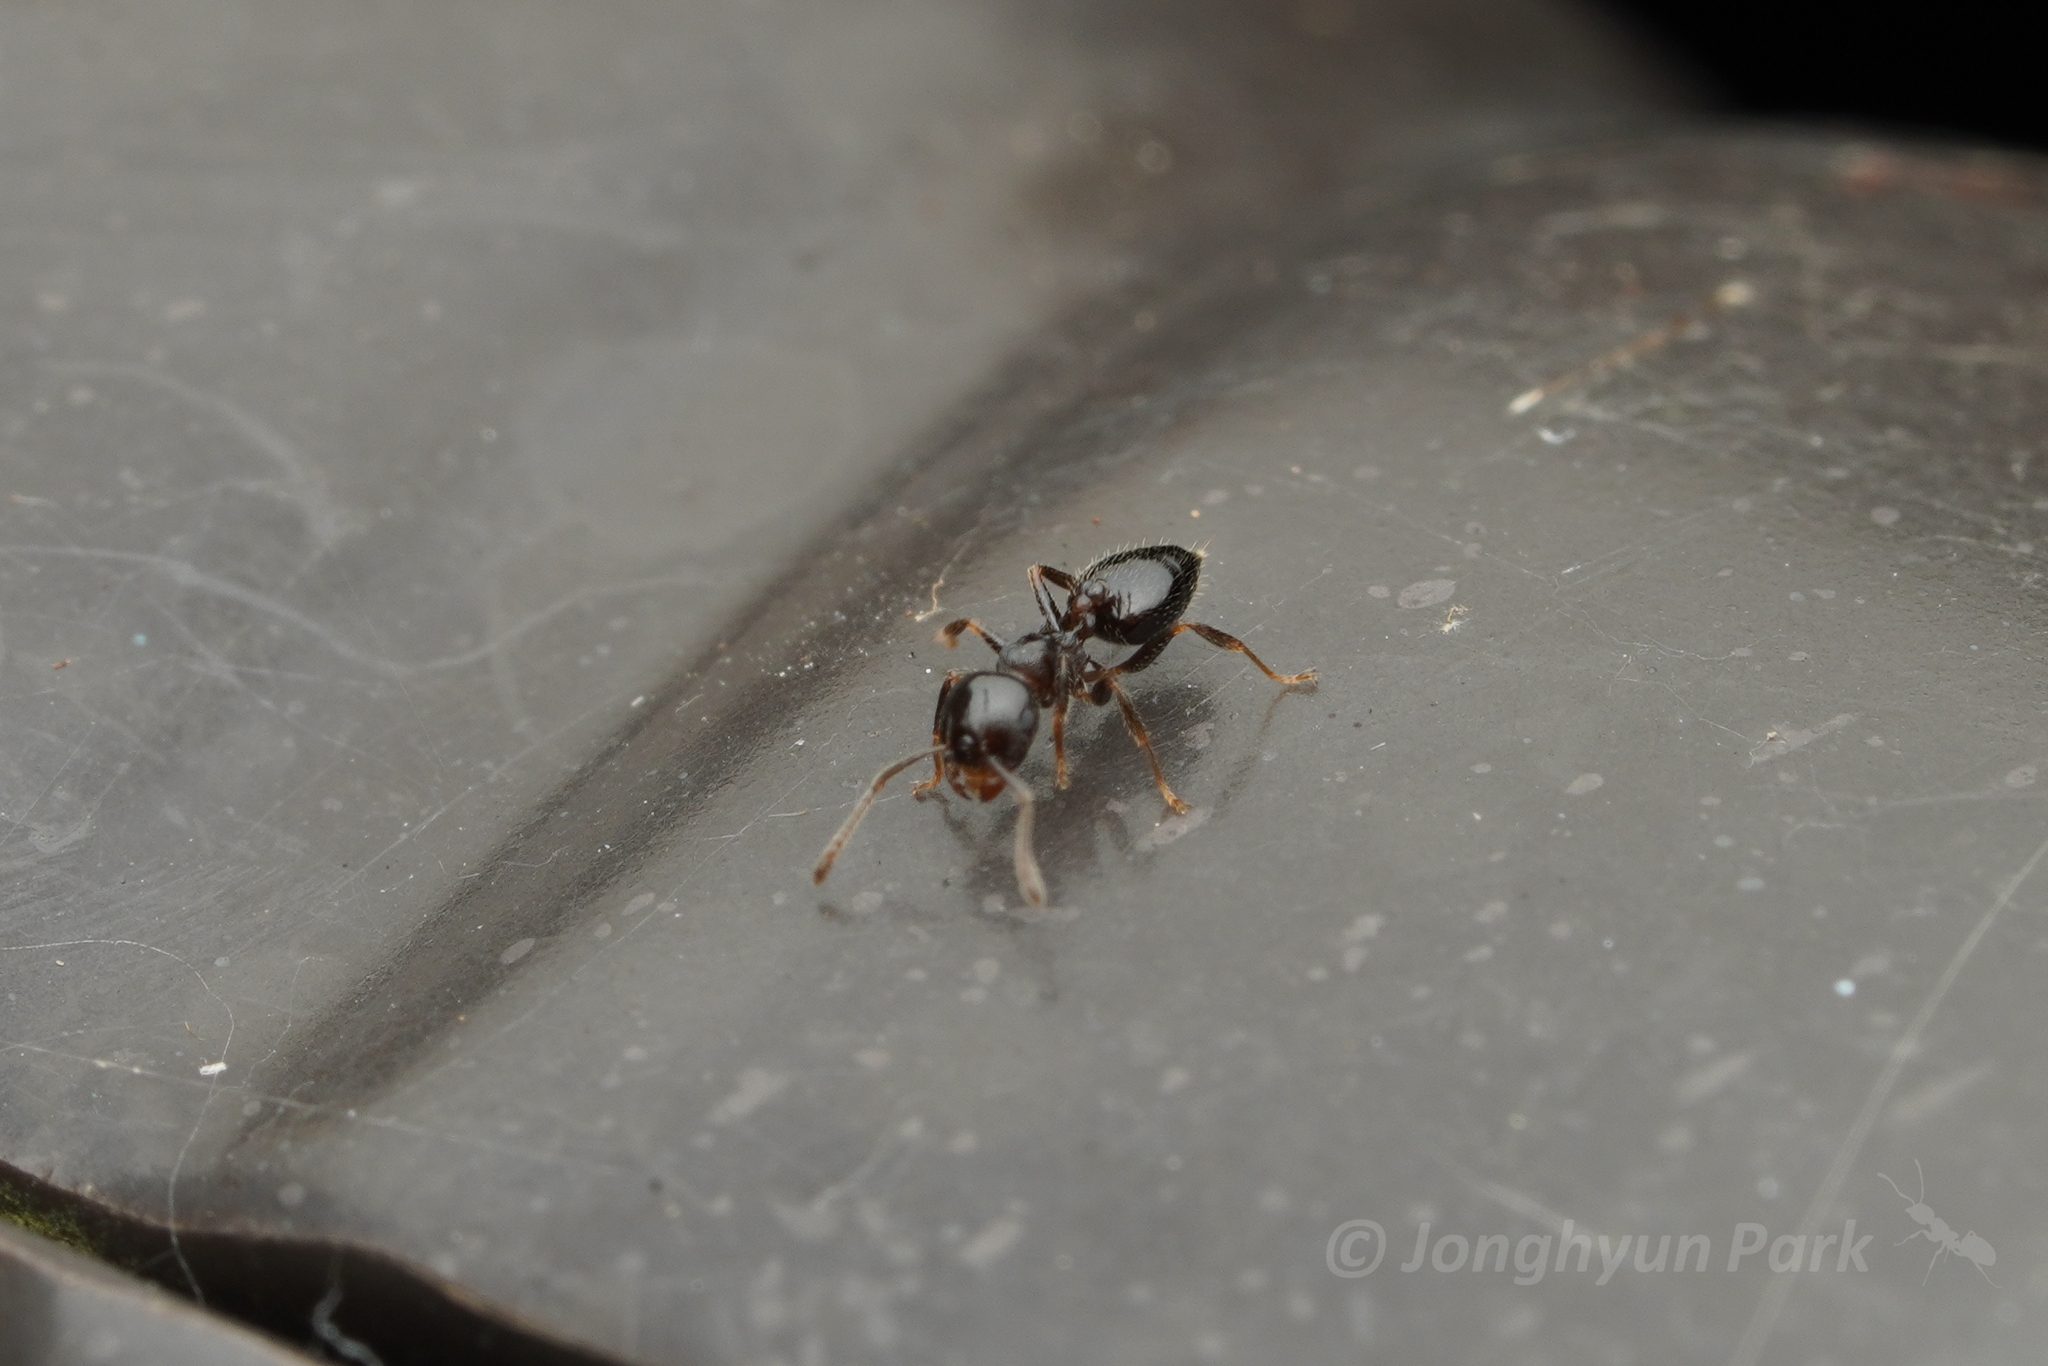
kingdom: Animalia
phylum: Arthropoda
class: Insecta
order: Hymenoptera
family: Formicidae
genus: Crematogaster
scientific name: Crematogaster teranishii
